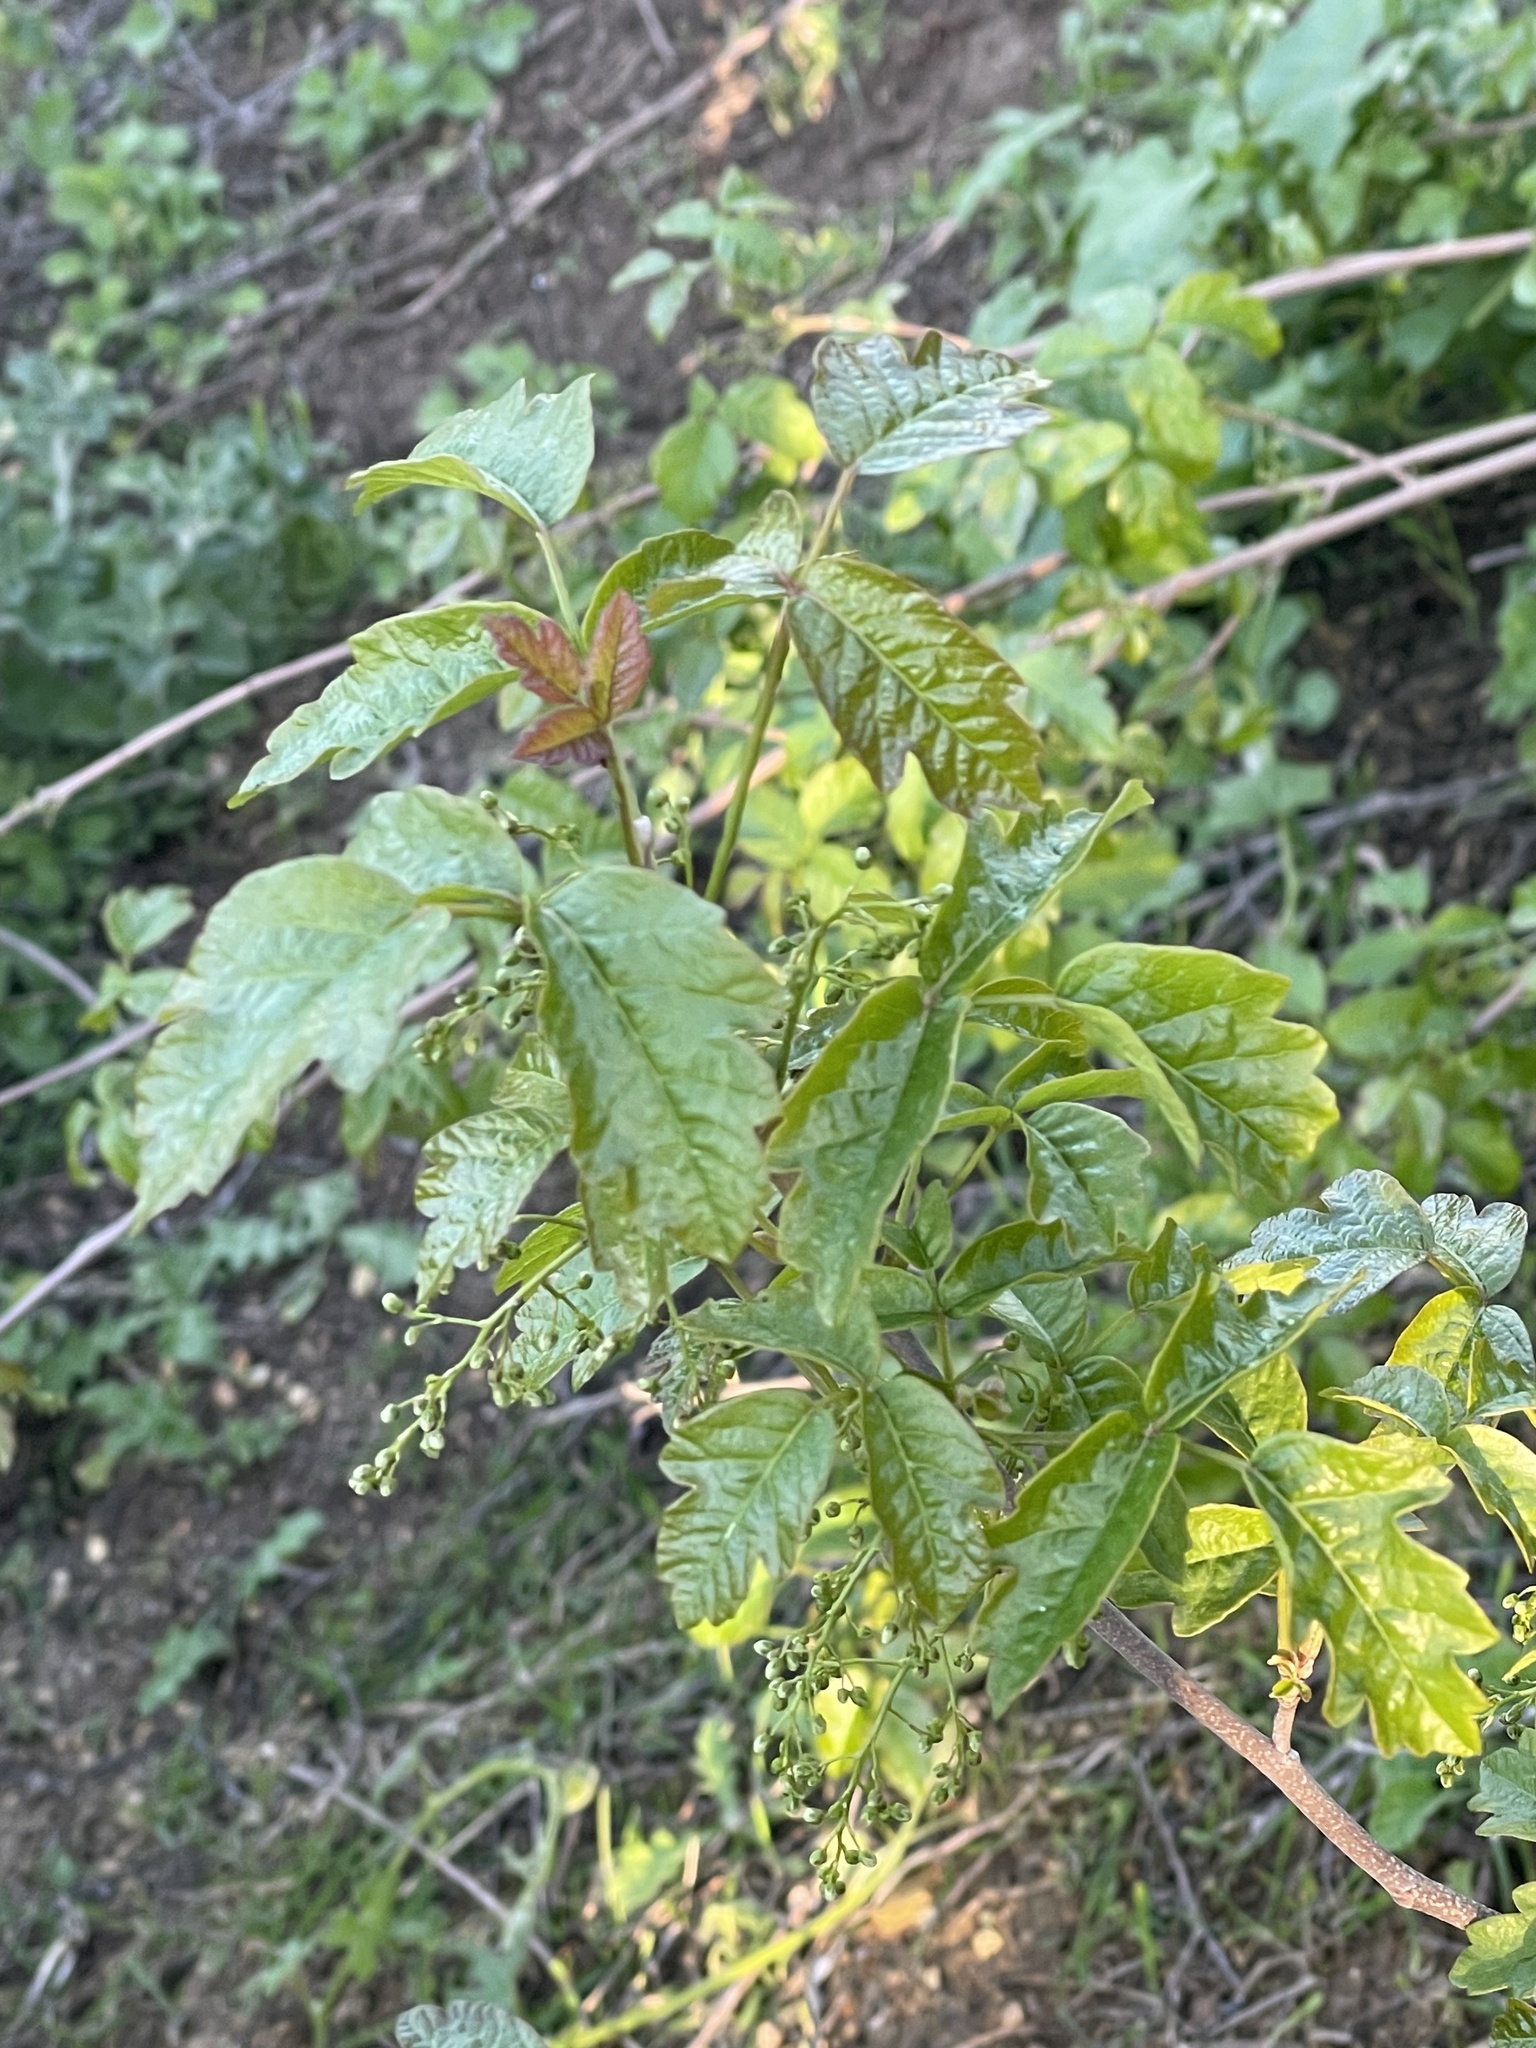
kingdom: Plantae
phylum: Tracheophyta
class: Magnoliopsida
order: Sapindales
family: Anacardiaceae
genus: Toxicodendron
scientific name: Toxicodendron diversilobum
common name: Pacific poison-oak
